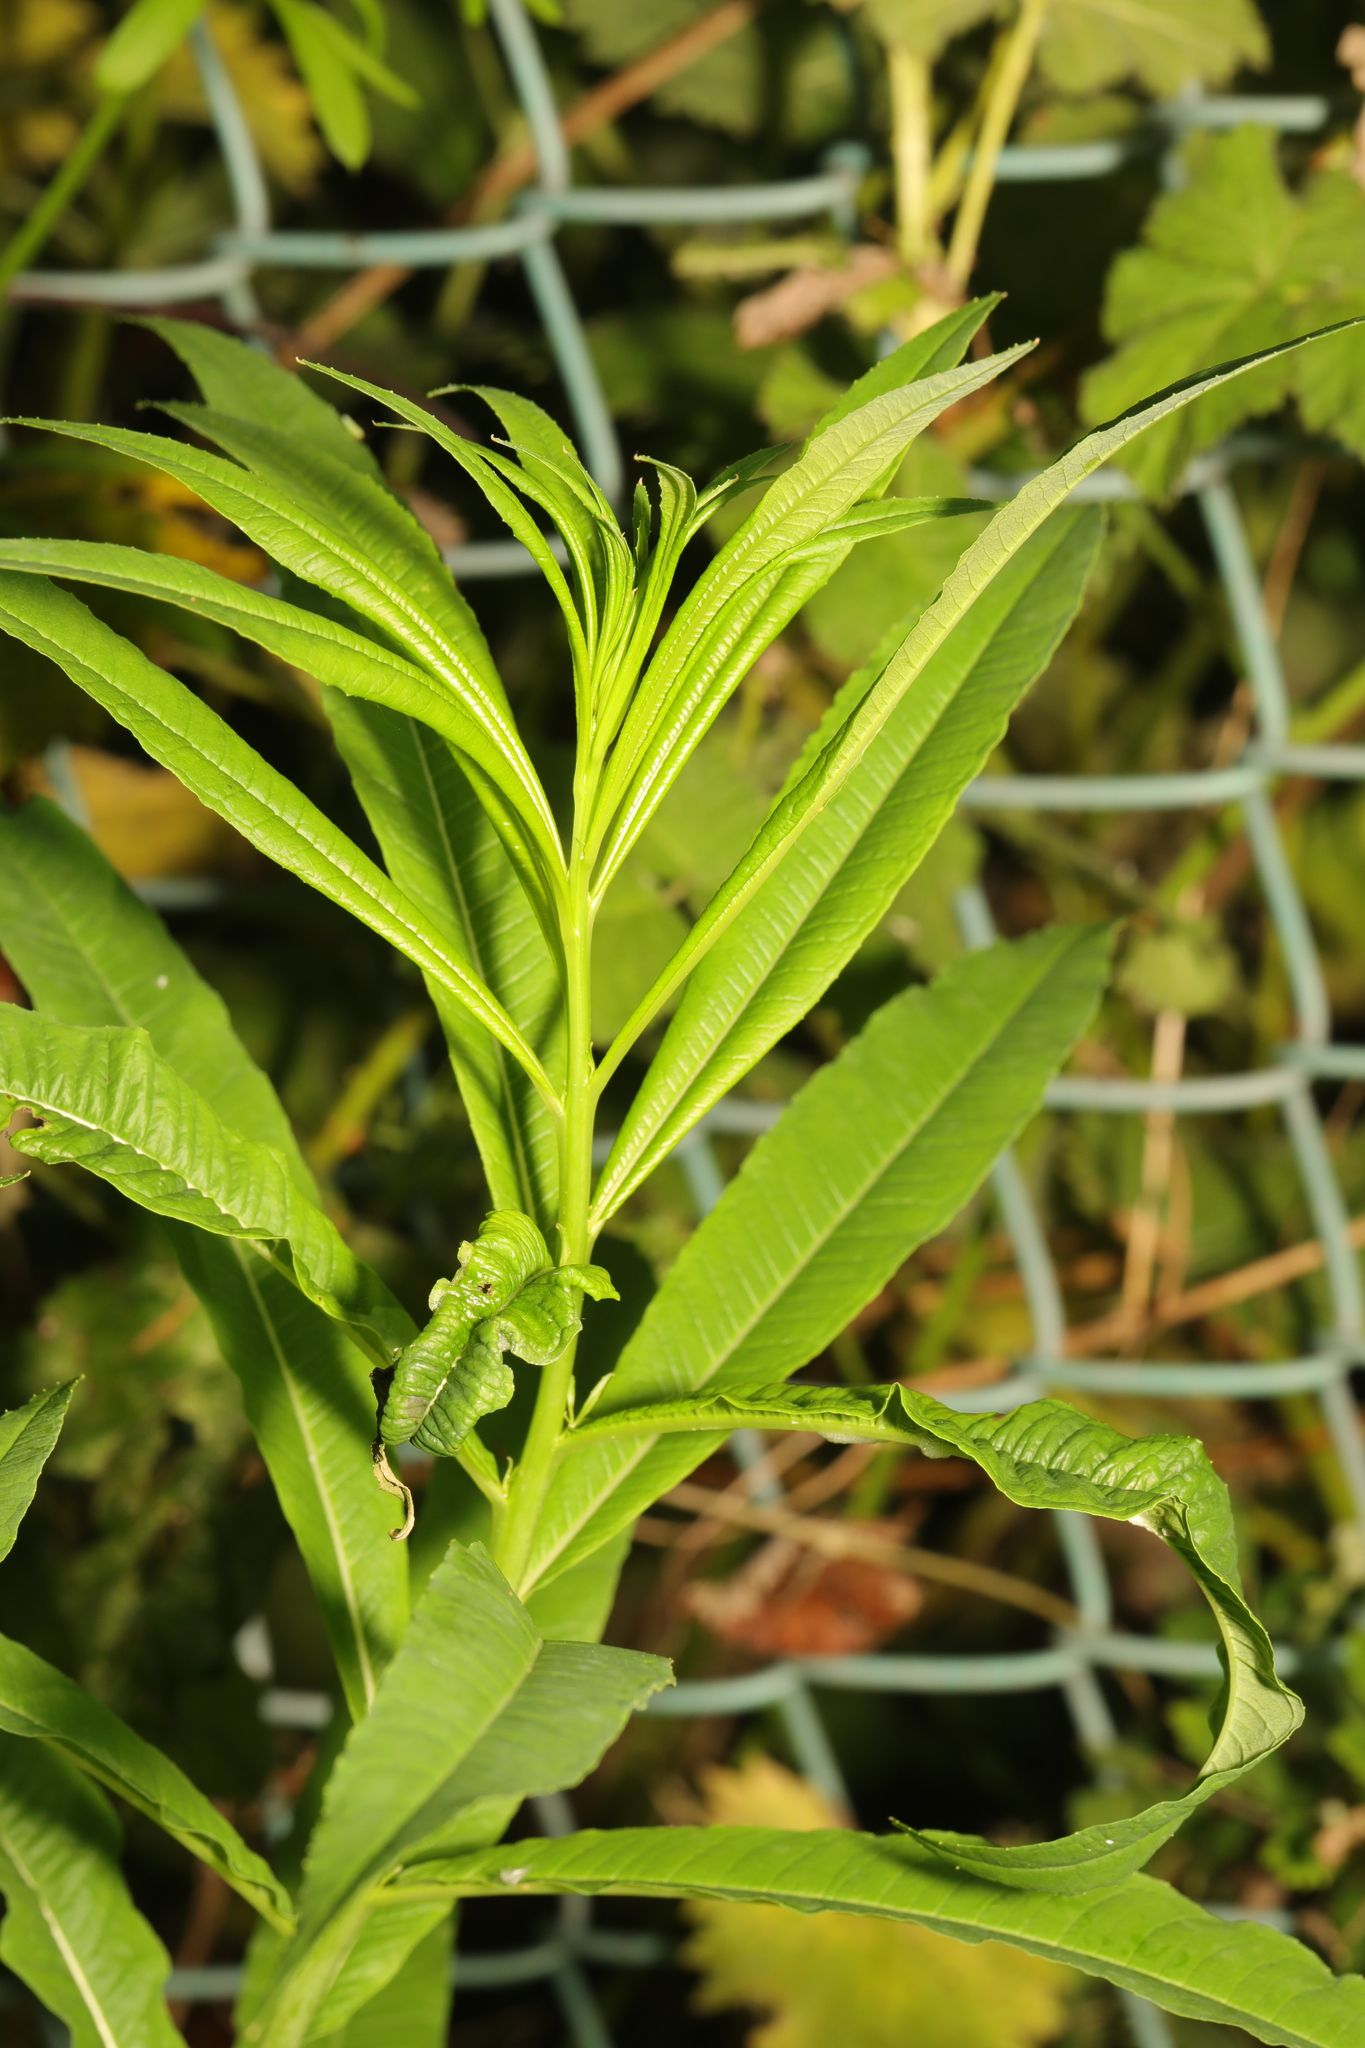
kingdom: Plantae
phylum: Tracheophyta
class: Magnoliopsida
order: Myrtales
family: Onagraceae
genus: Chamaenerion
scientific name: Chamaenerion angustifolium
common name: Fireweed
